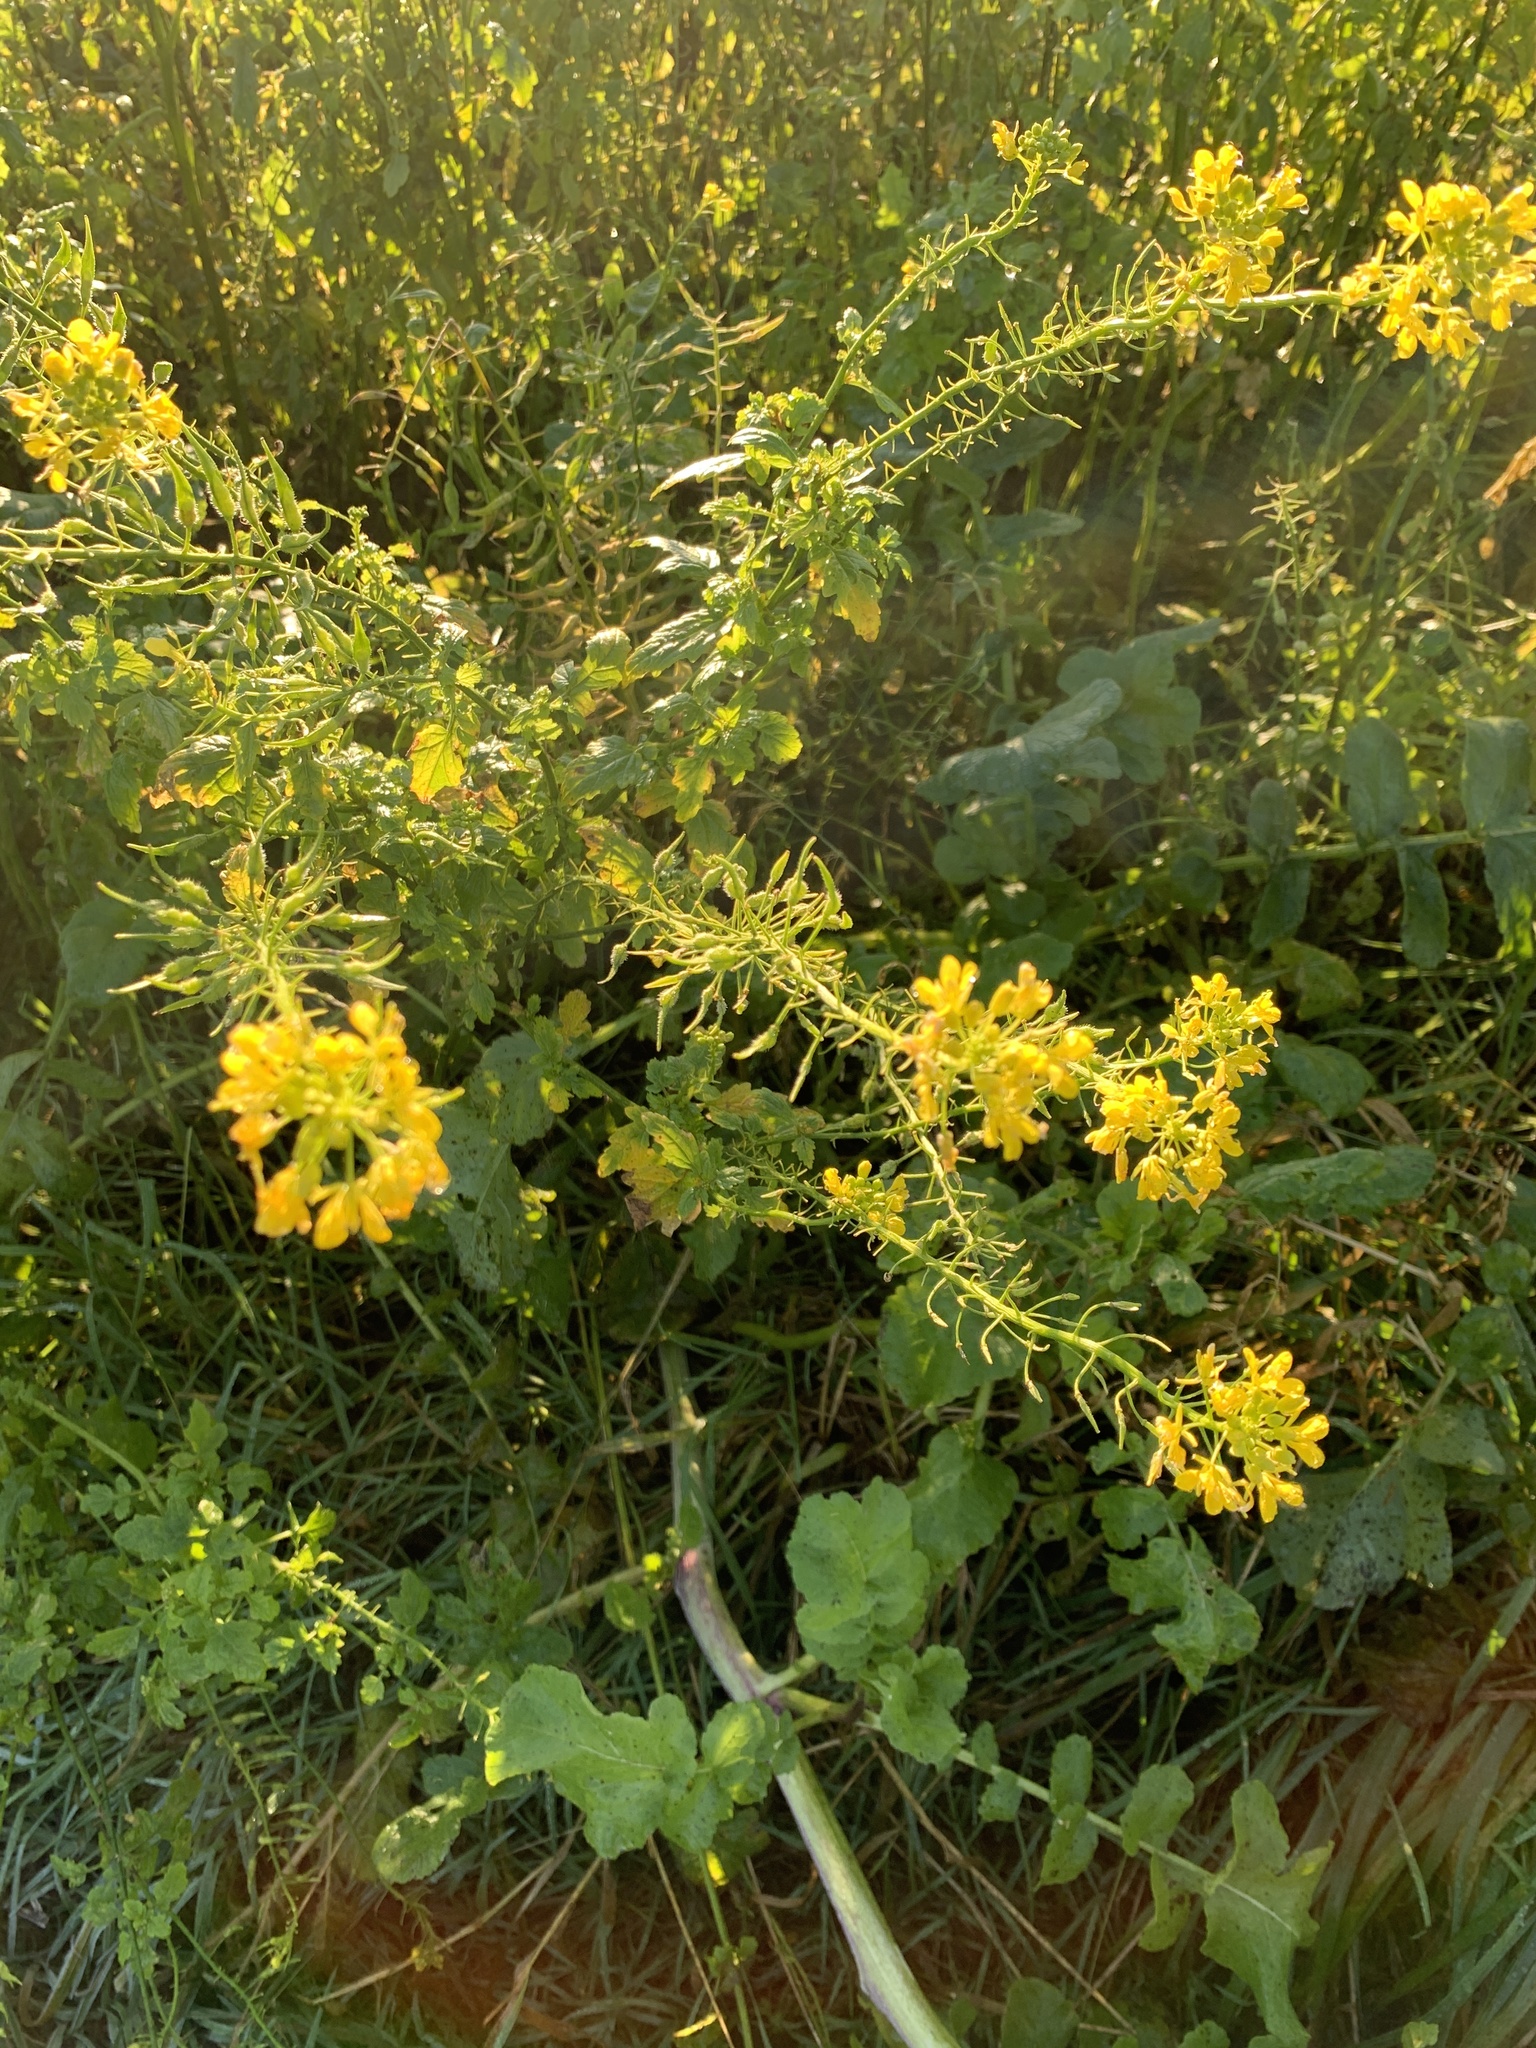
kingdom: Plantae
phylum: Tracheophyta
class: Magnoliopsida
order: Brassicales
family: Brassicaceae
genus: Sinapis
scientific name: Sinapis alba
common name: White mustard
